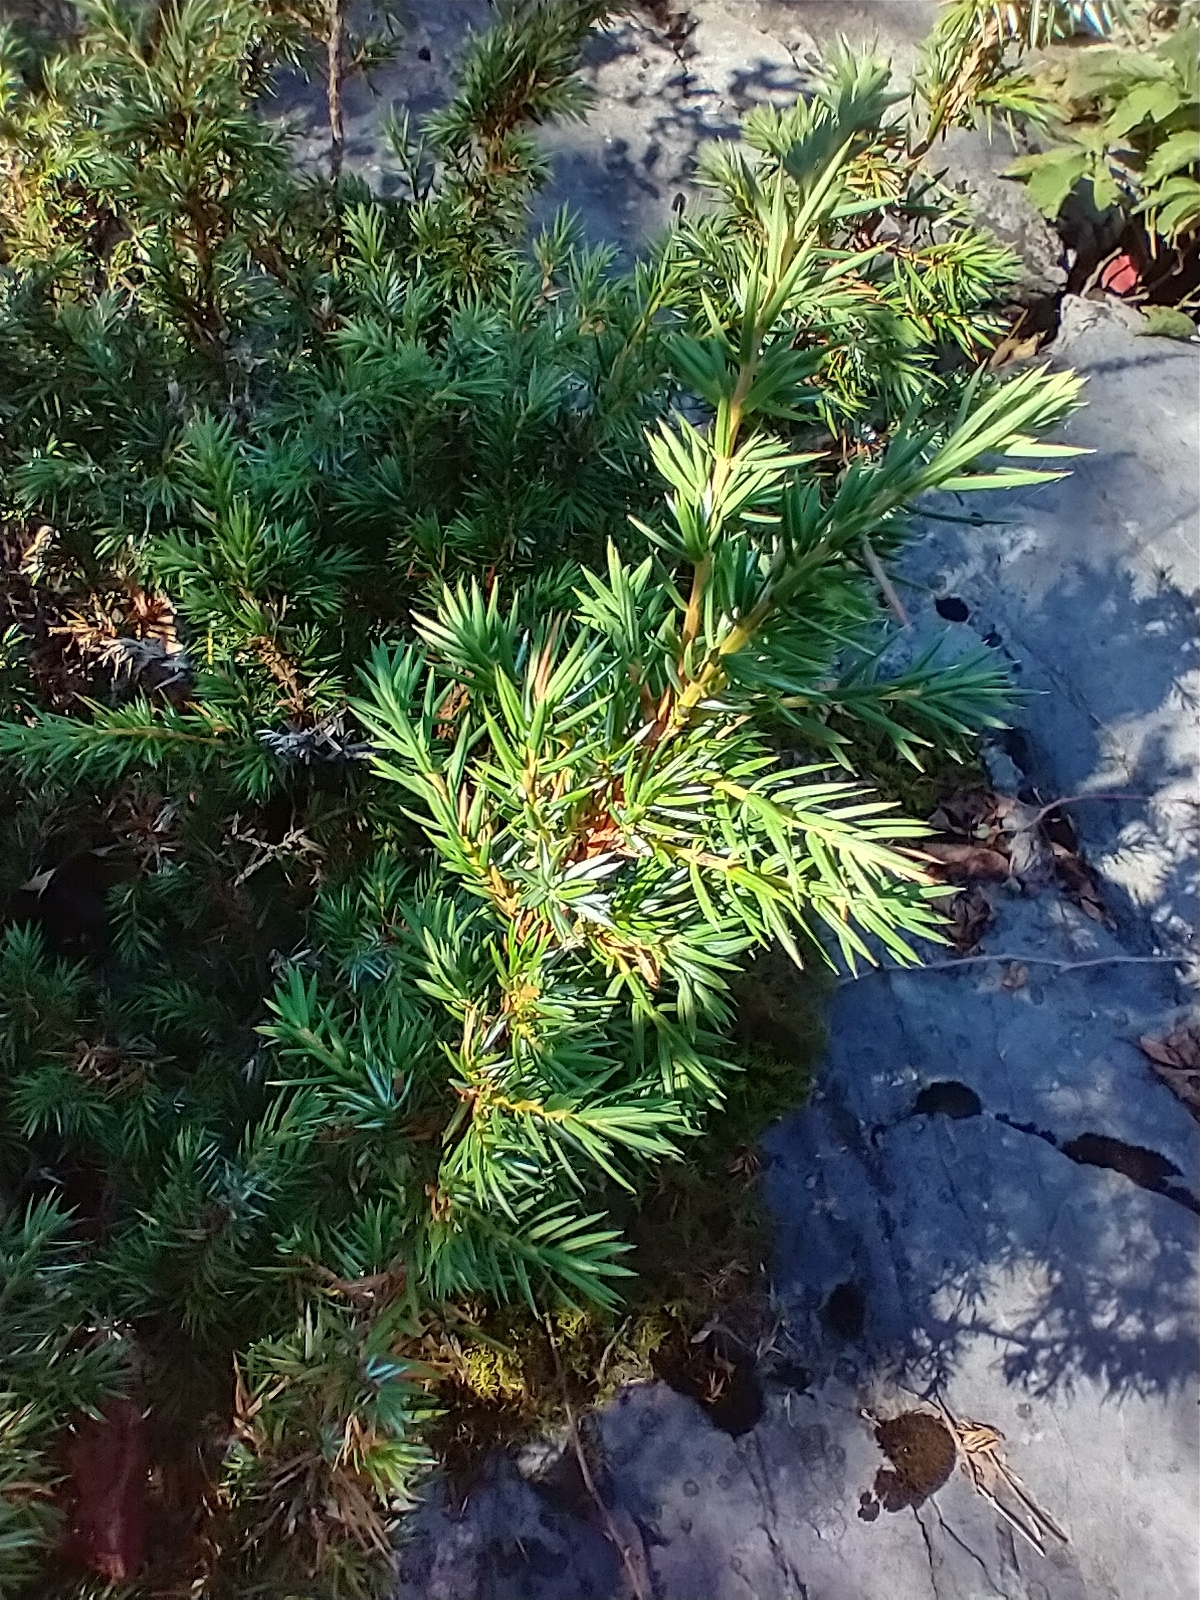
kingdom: Plantae
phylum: Tracheophyta
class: Pinopsida
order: Pinales
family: Cupressaceae
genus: Juniperus
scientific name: Juniperus communis
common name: Common juniper
